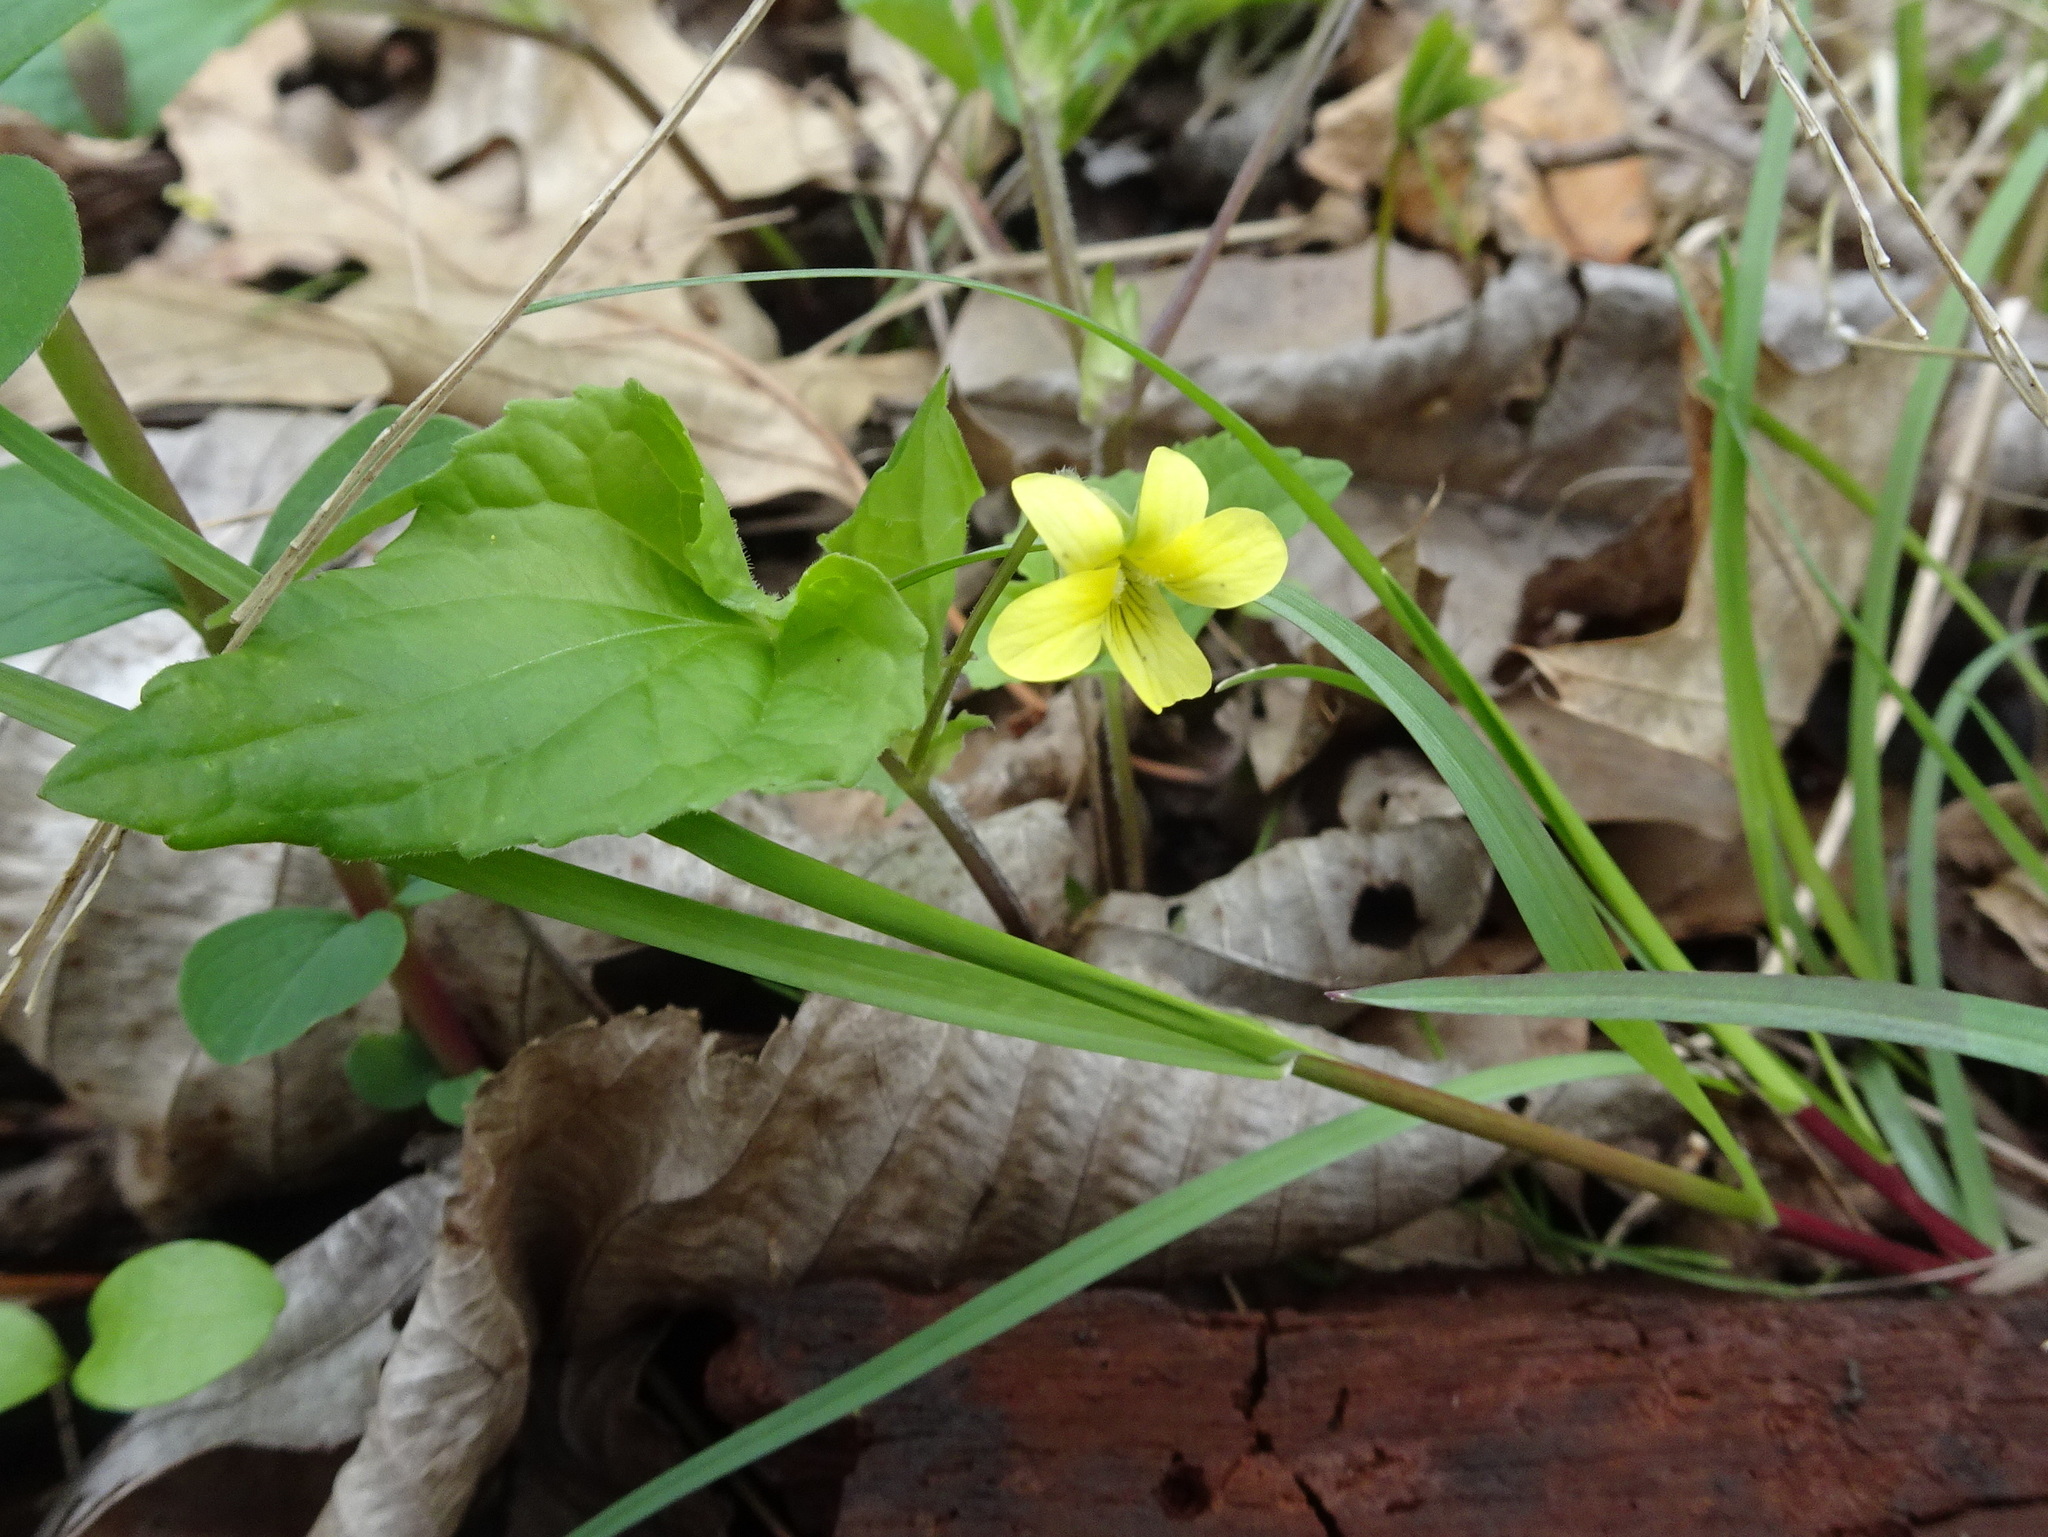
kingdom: Plantae
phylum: Tracheophyta
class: Magnoliopsida
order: Malpighiales
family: Violaceae
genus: Viola
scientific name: Viola eriocarpa
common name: Smooth yellow violet
